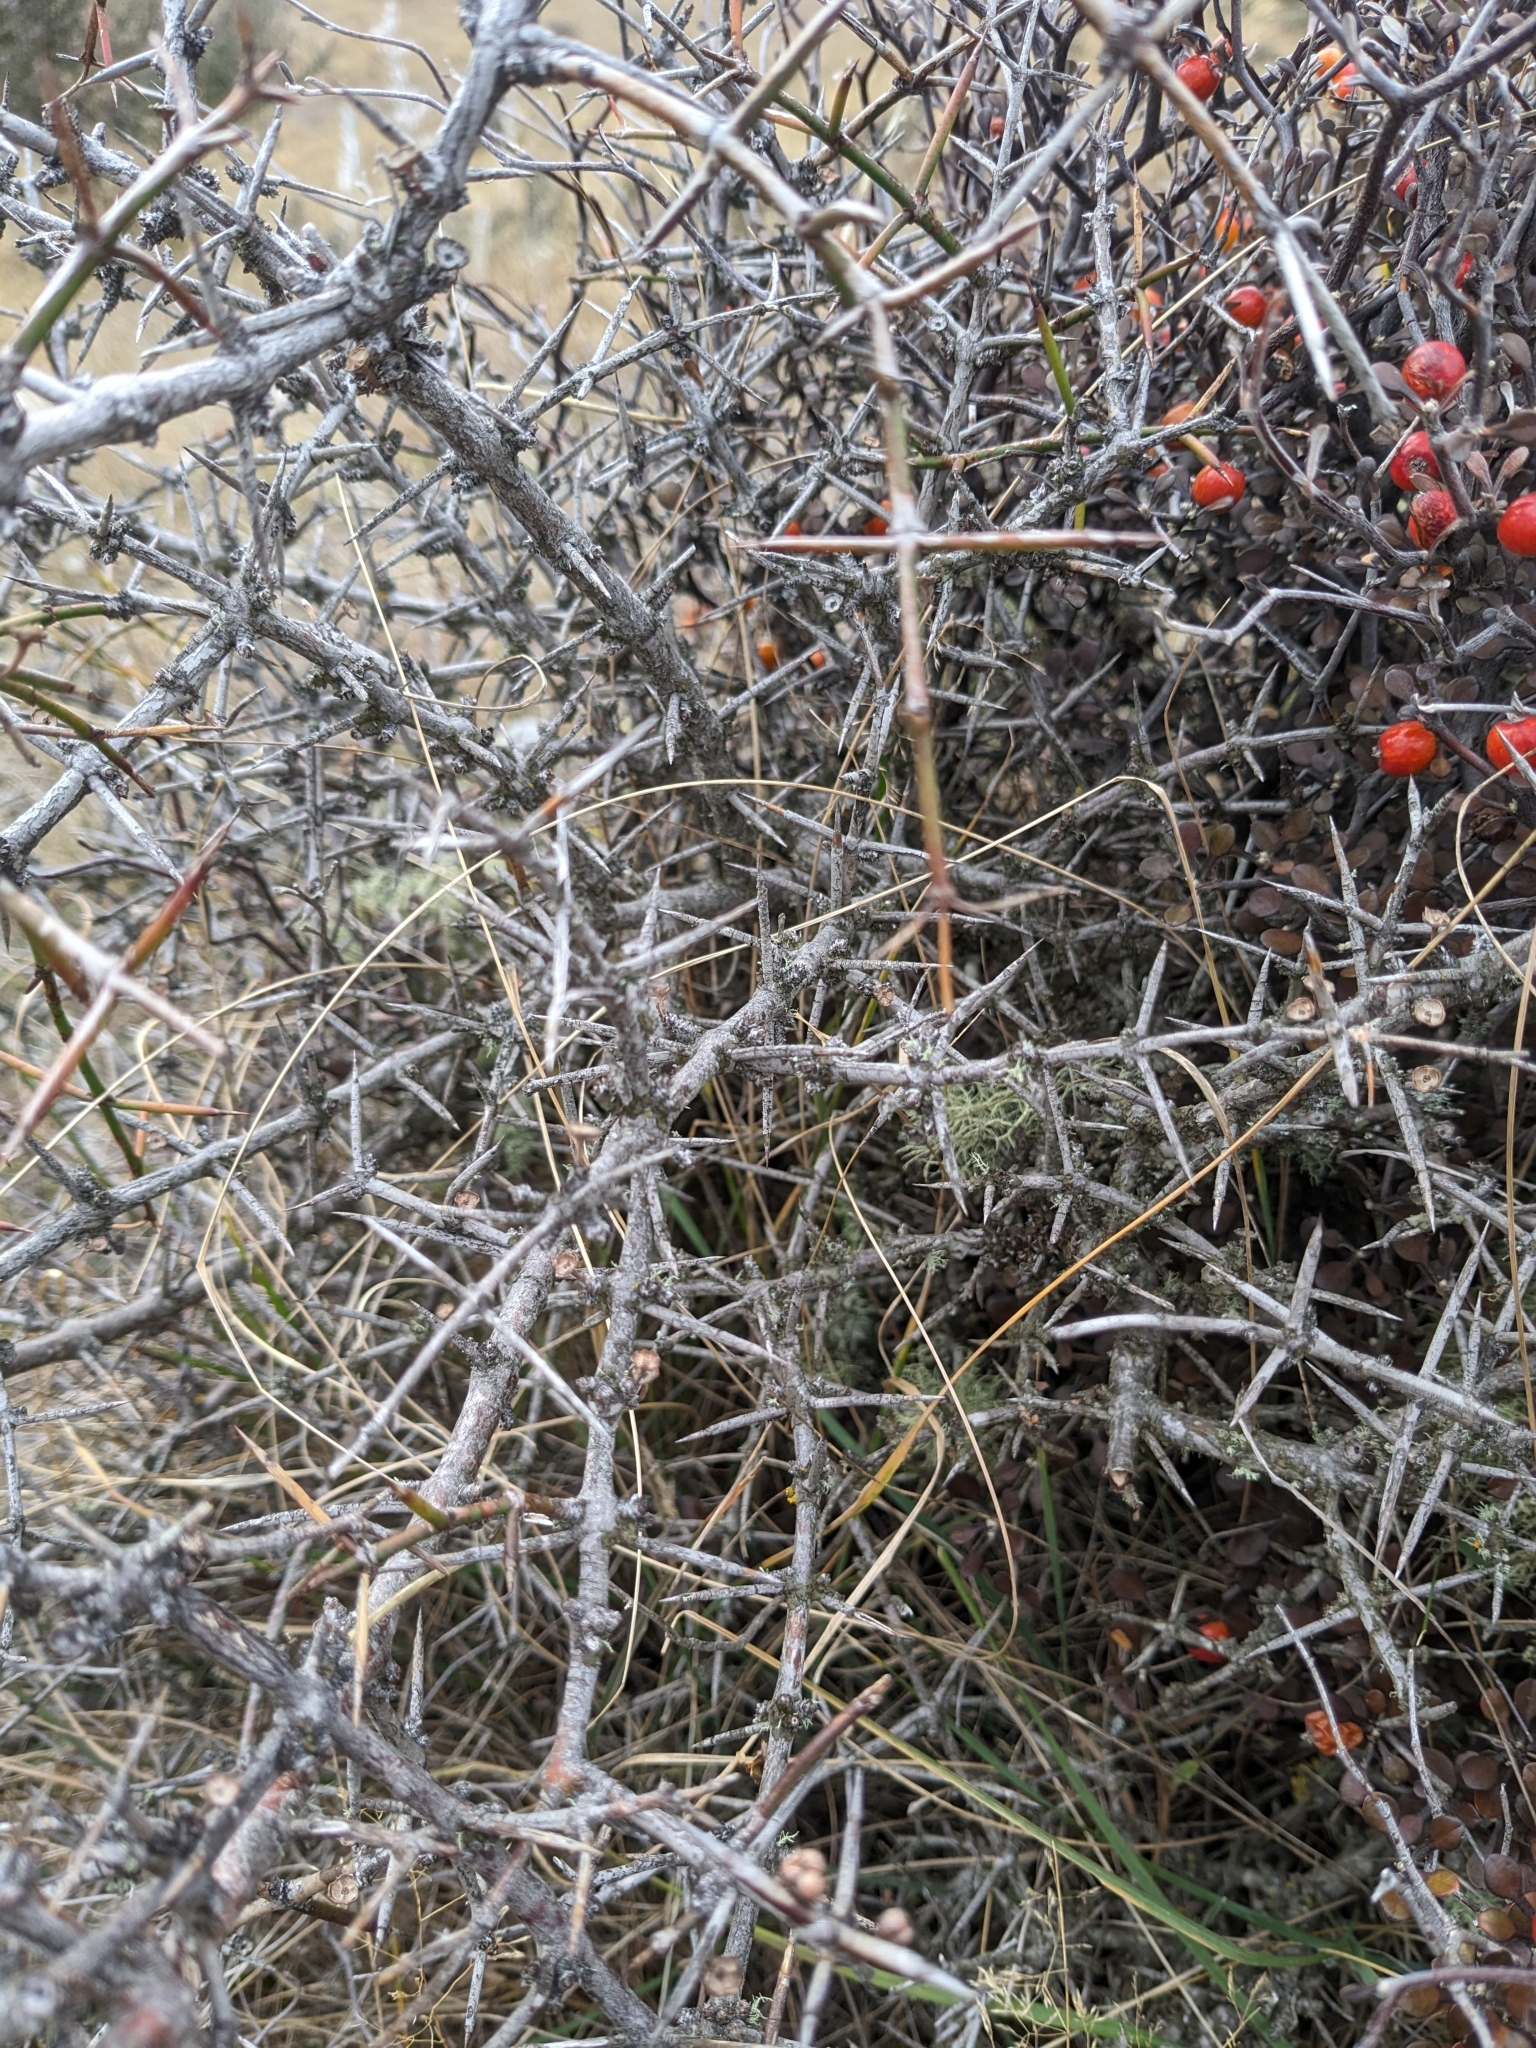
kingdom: Plantae
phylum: Tracheophyta
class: Magnoliopsida
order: Rosales
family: Rhamnaceae
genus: Discaria
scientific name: Discaria toumatou
